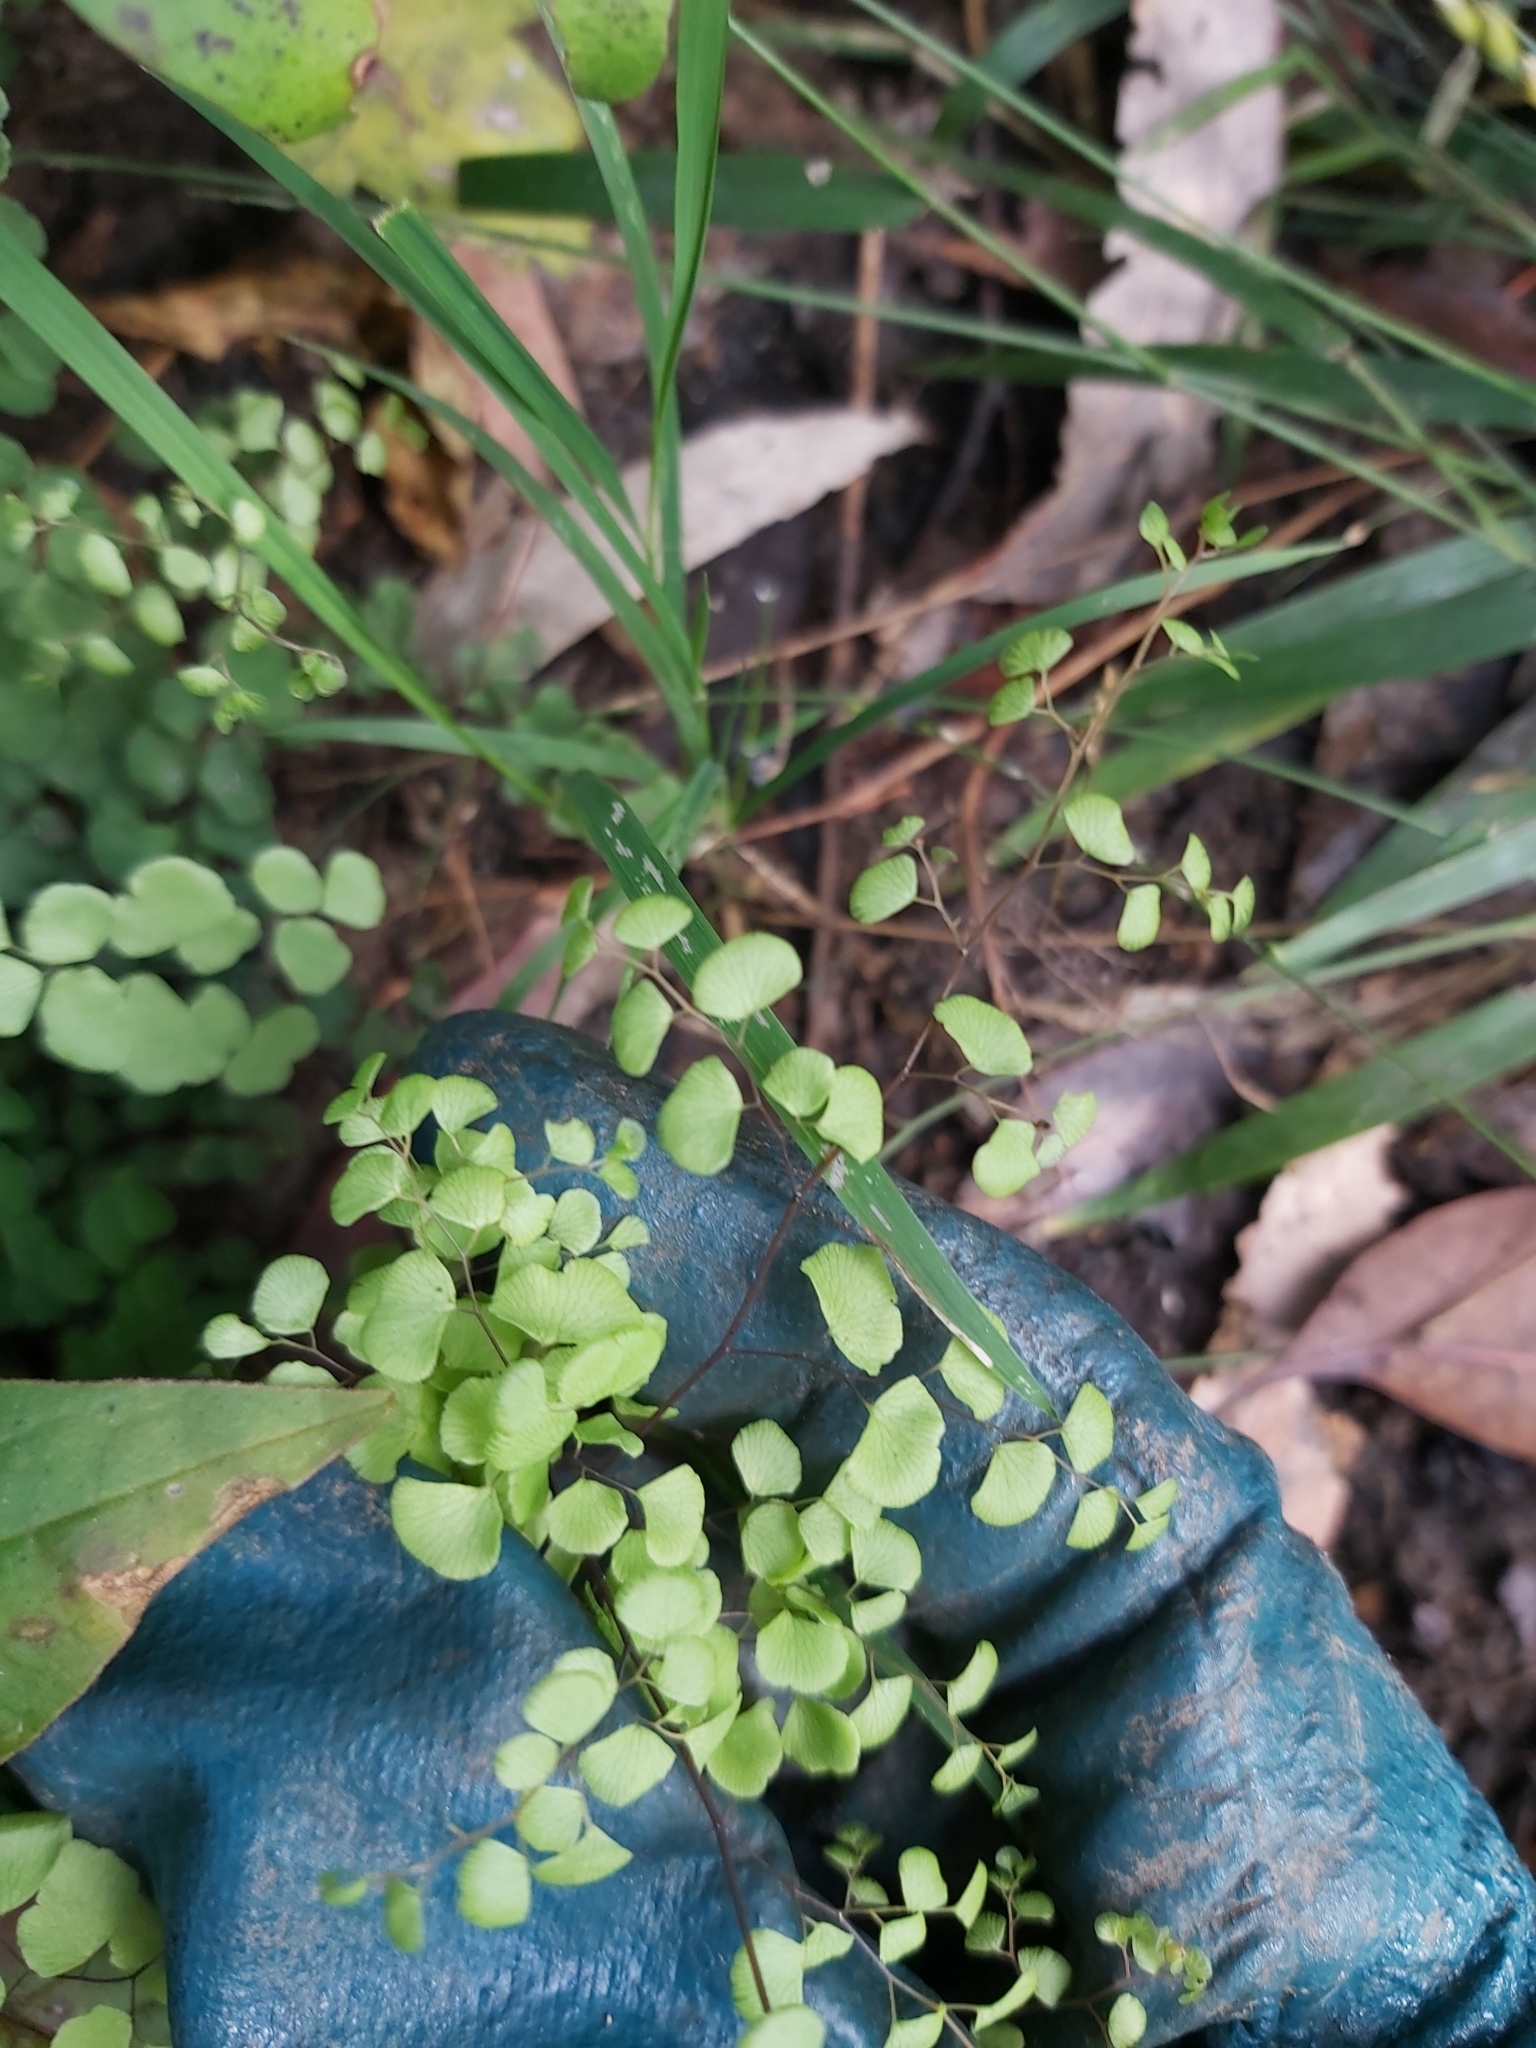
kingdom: Plantae
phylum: Tracheophyta
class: Polypodiopsida
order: Polypodiales
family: Pteridaceae
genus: Adiantum
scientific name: Adiantum aethiopicum
